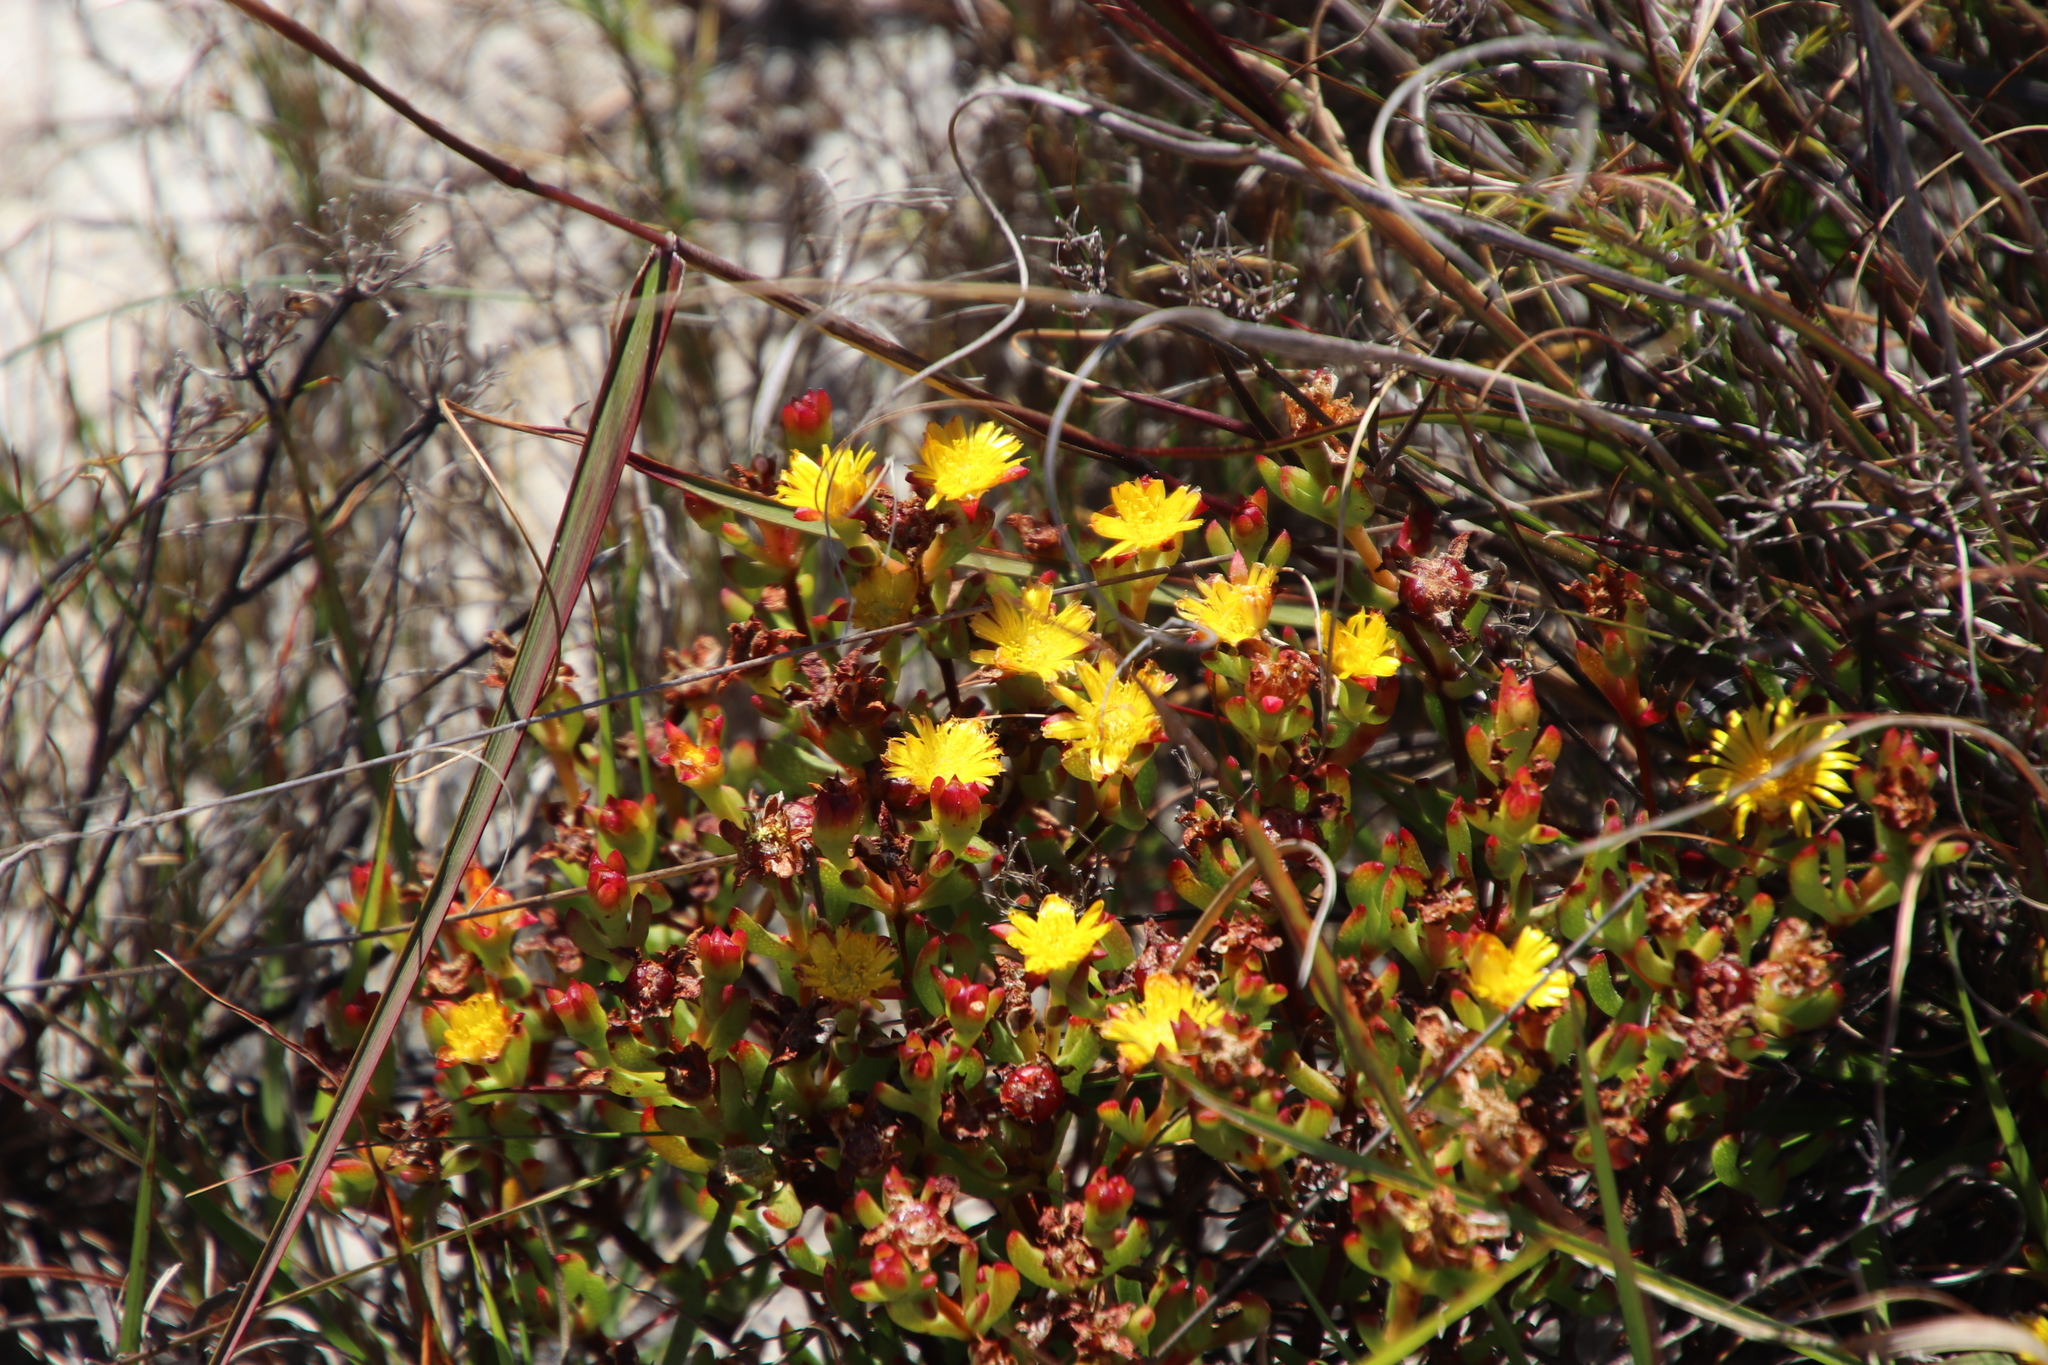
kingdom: Plantae
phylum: Tracheophyta
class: Magnoliopsida
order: Caryophyllales
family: Aizoaceae
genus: Lampranthus
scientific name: Lampranthus promontorii
